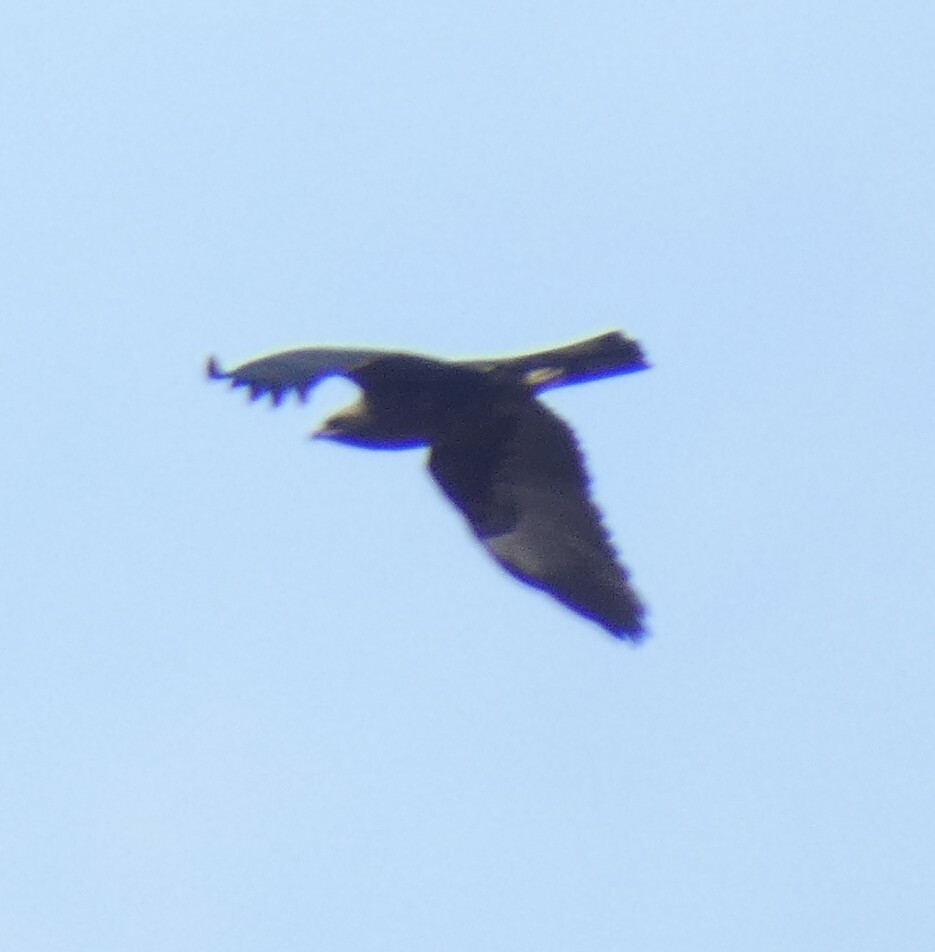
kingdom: Animalia
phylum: Chordata
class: Aves
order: Accipitriformes
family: Accipitridae
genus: Hieraaetus
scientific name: Hieraaetus wahlbergi
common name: Wahlberg's eagle
